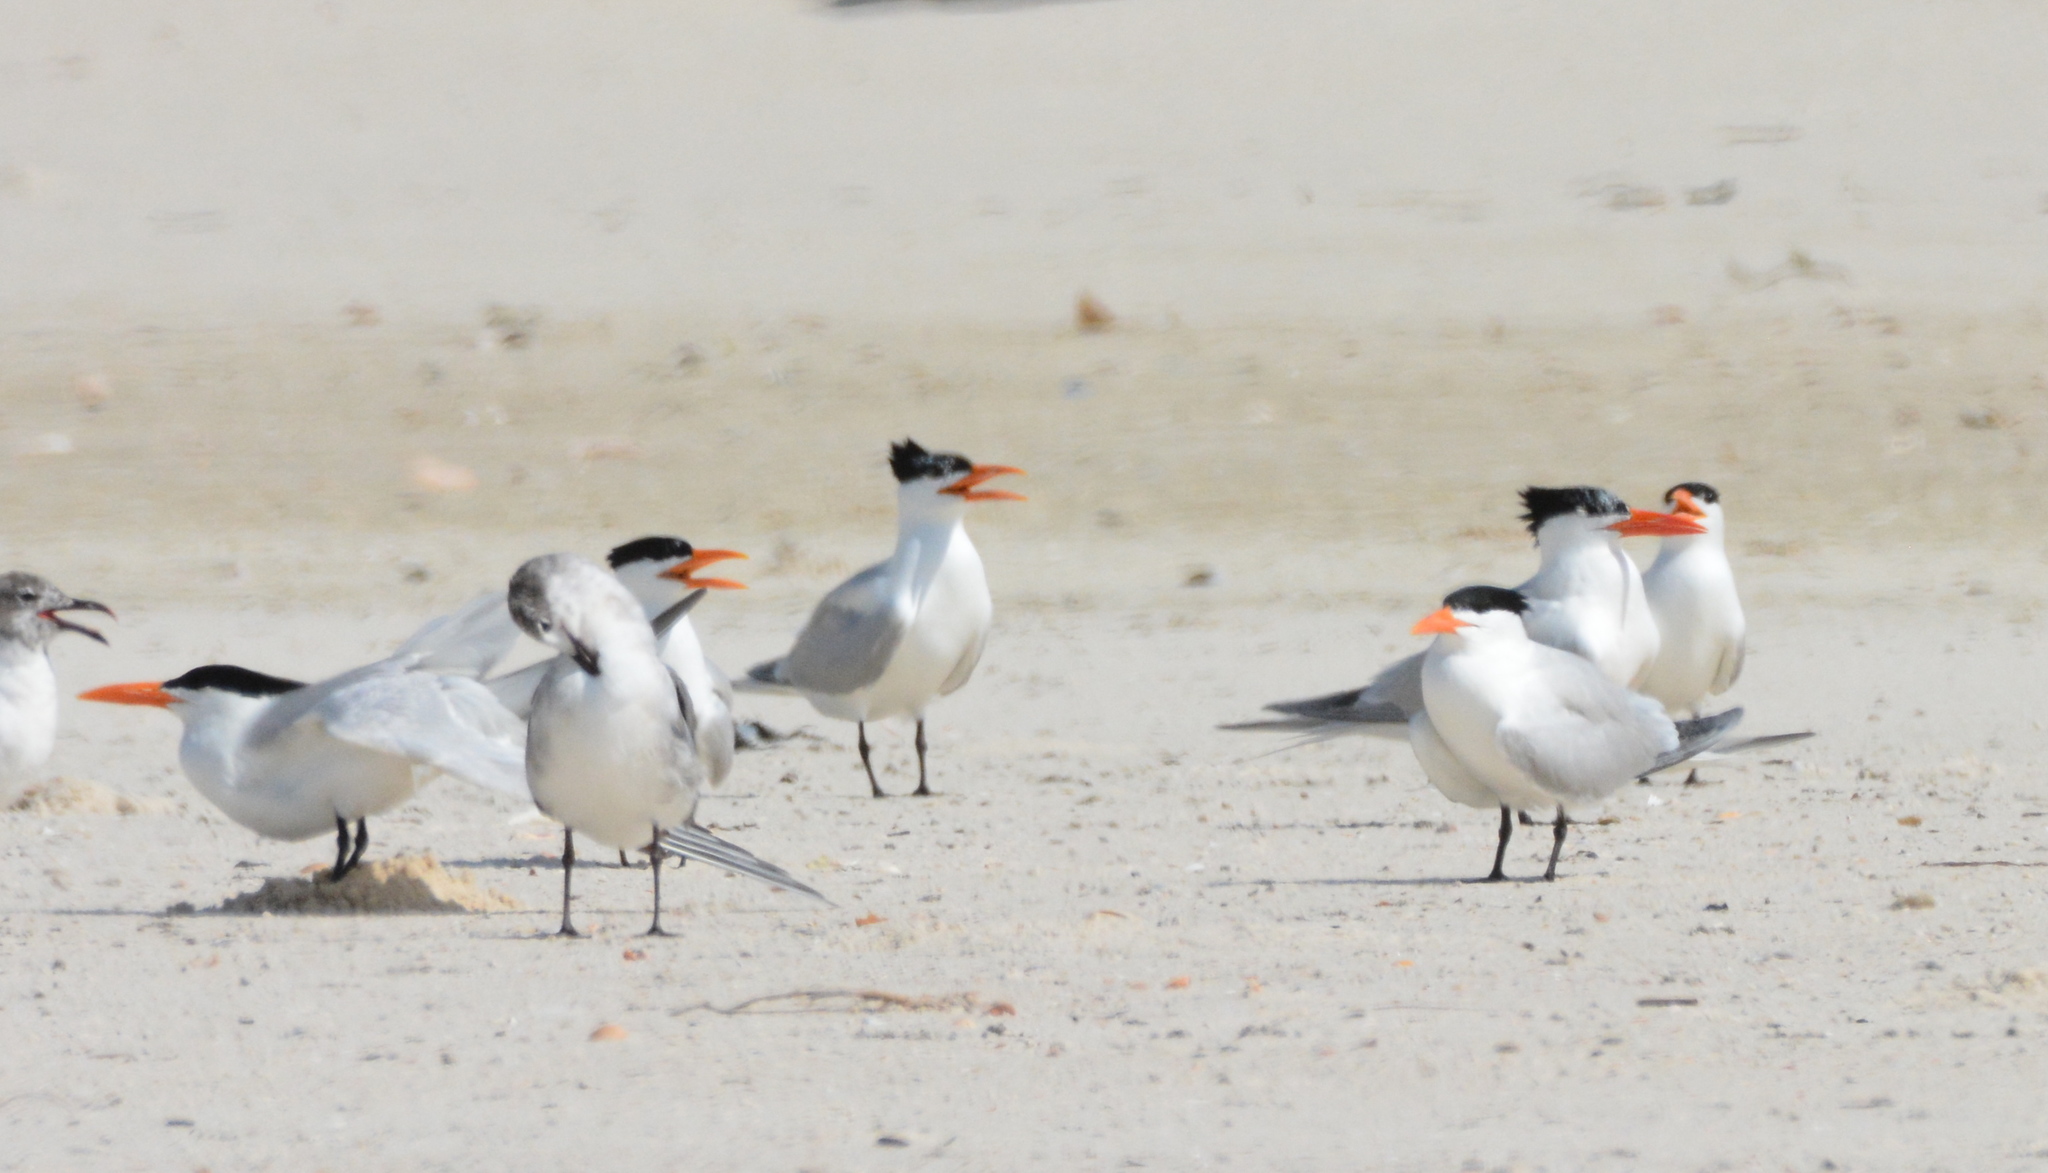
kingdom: Animalia
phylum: Chordata
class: Aves
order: Charadriiformes
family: Laridae
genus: Thalasseus
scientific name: Thalasseus maximus
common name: Royal tern
